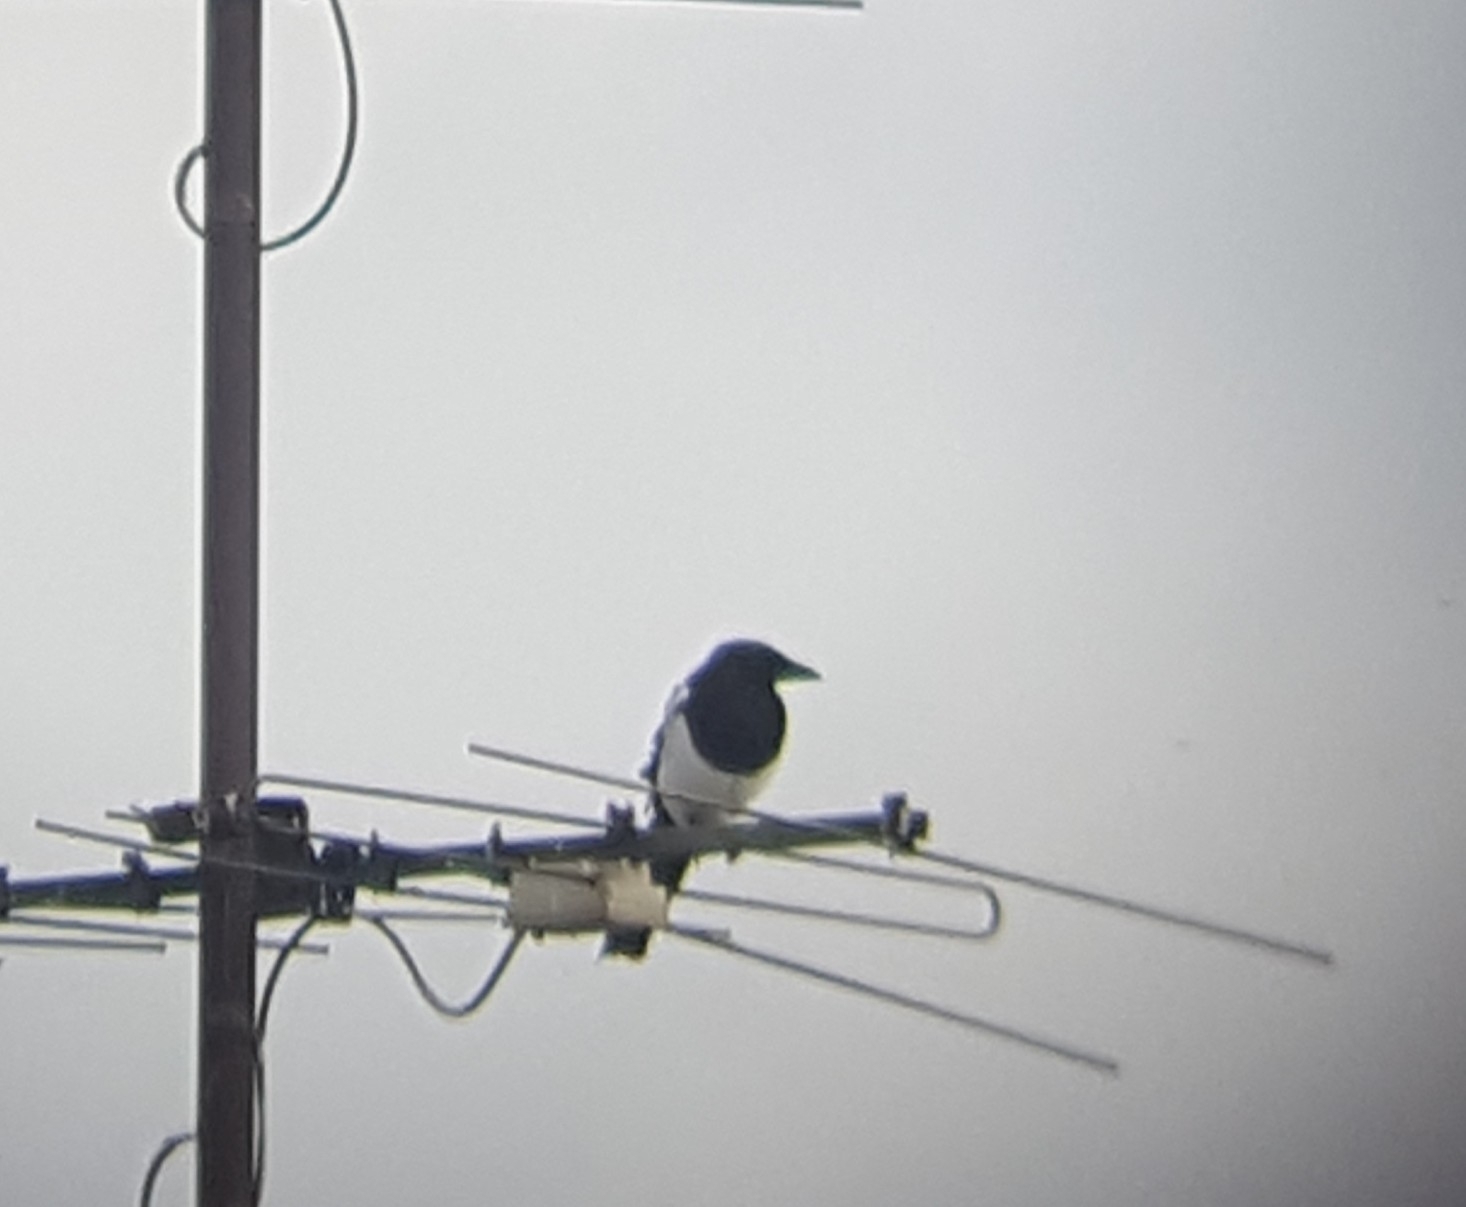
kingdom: Animalia
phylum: Chordata
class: Aves
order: Passeriformes
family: Corvidae
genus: Pica
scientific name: Pica pica
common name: Eurasian magpie
